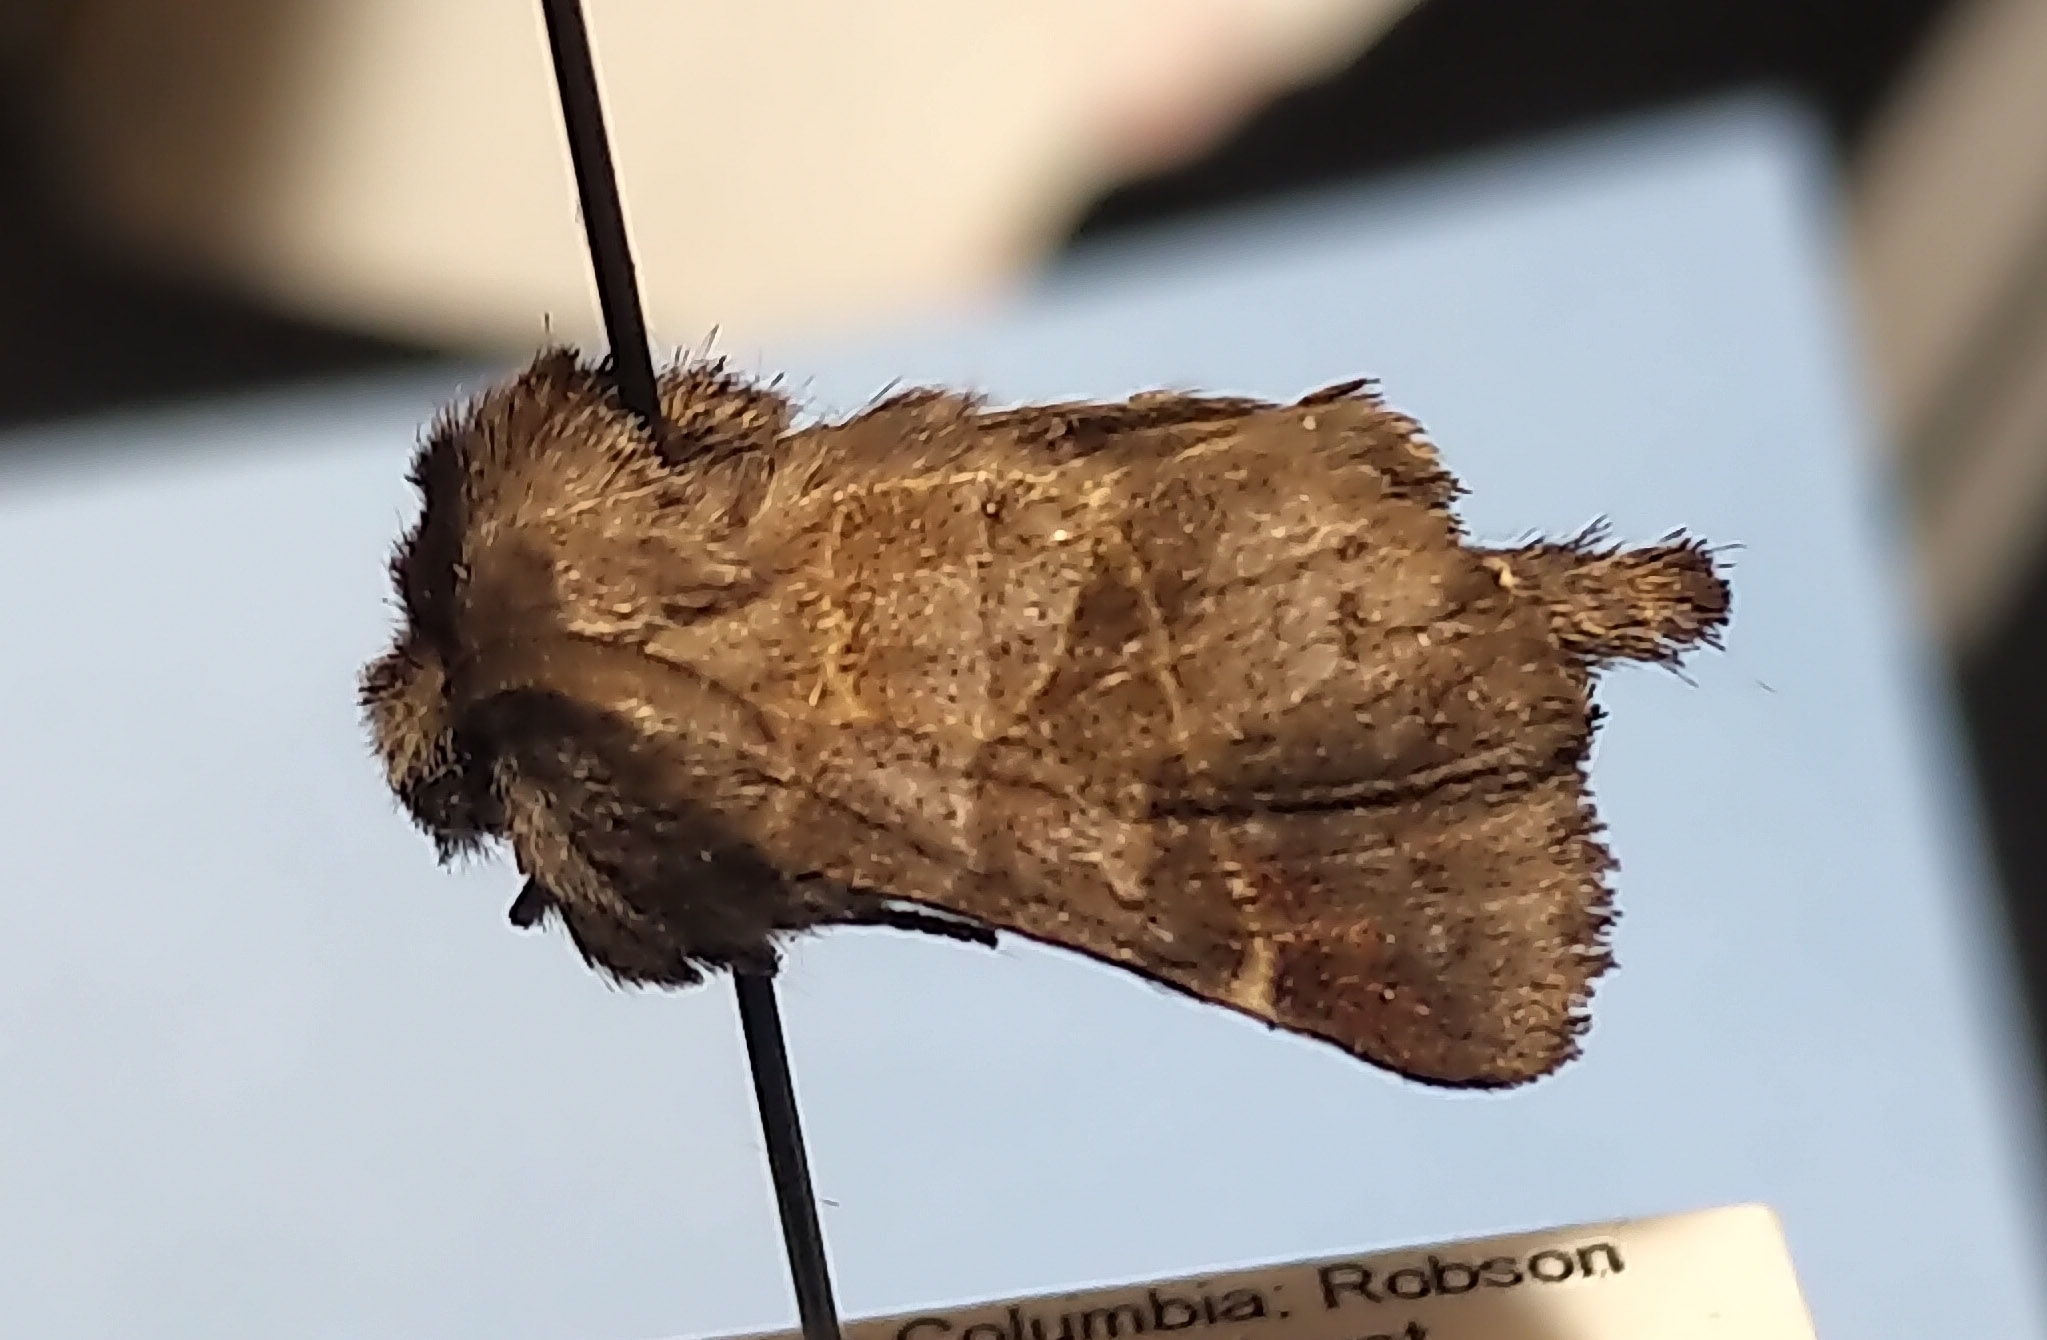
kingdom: Animalia
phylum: Arthropoda
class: Insecta
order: Lepidoptera
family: Notodontidae
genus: Clostera
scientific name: Clostera brucei
